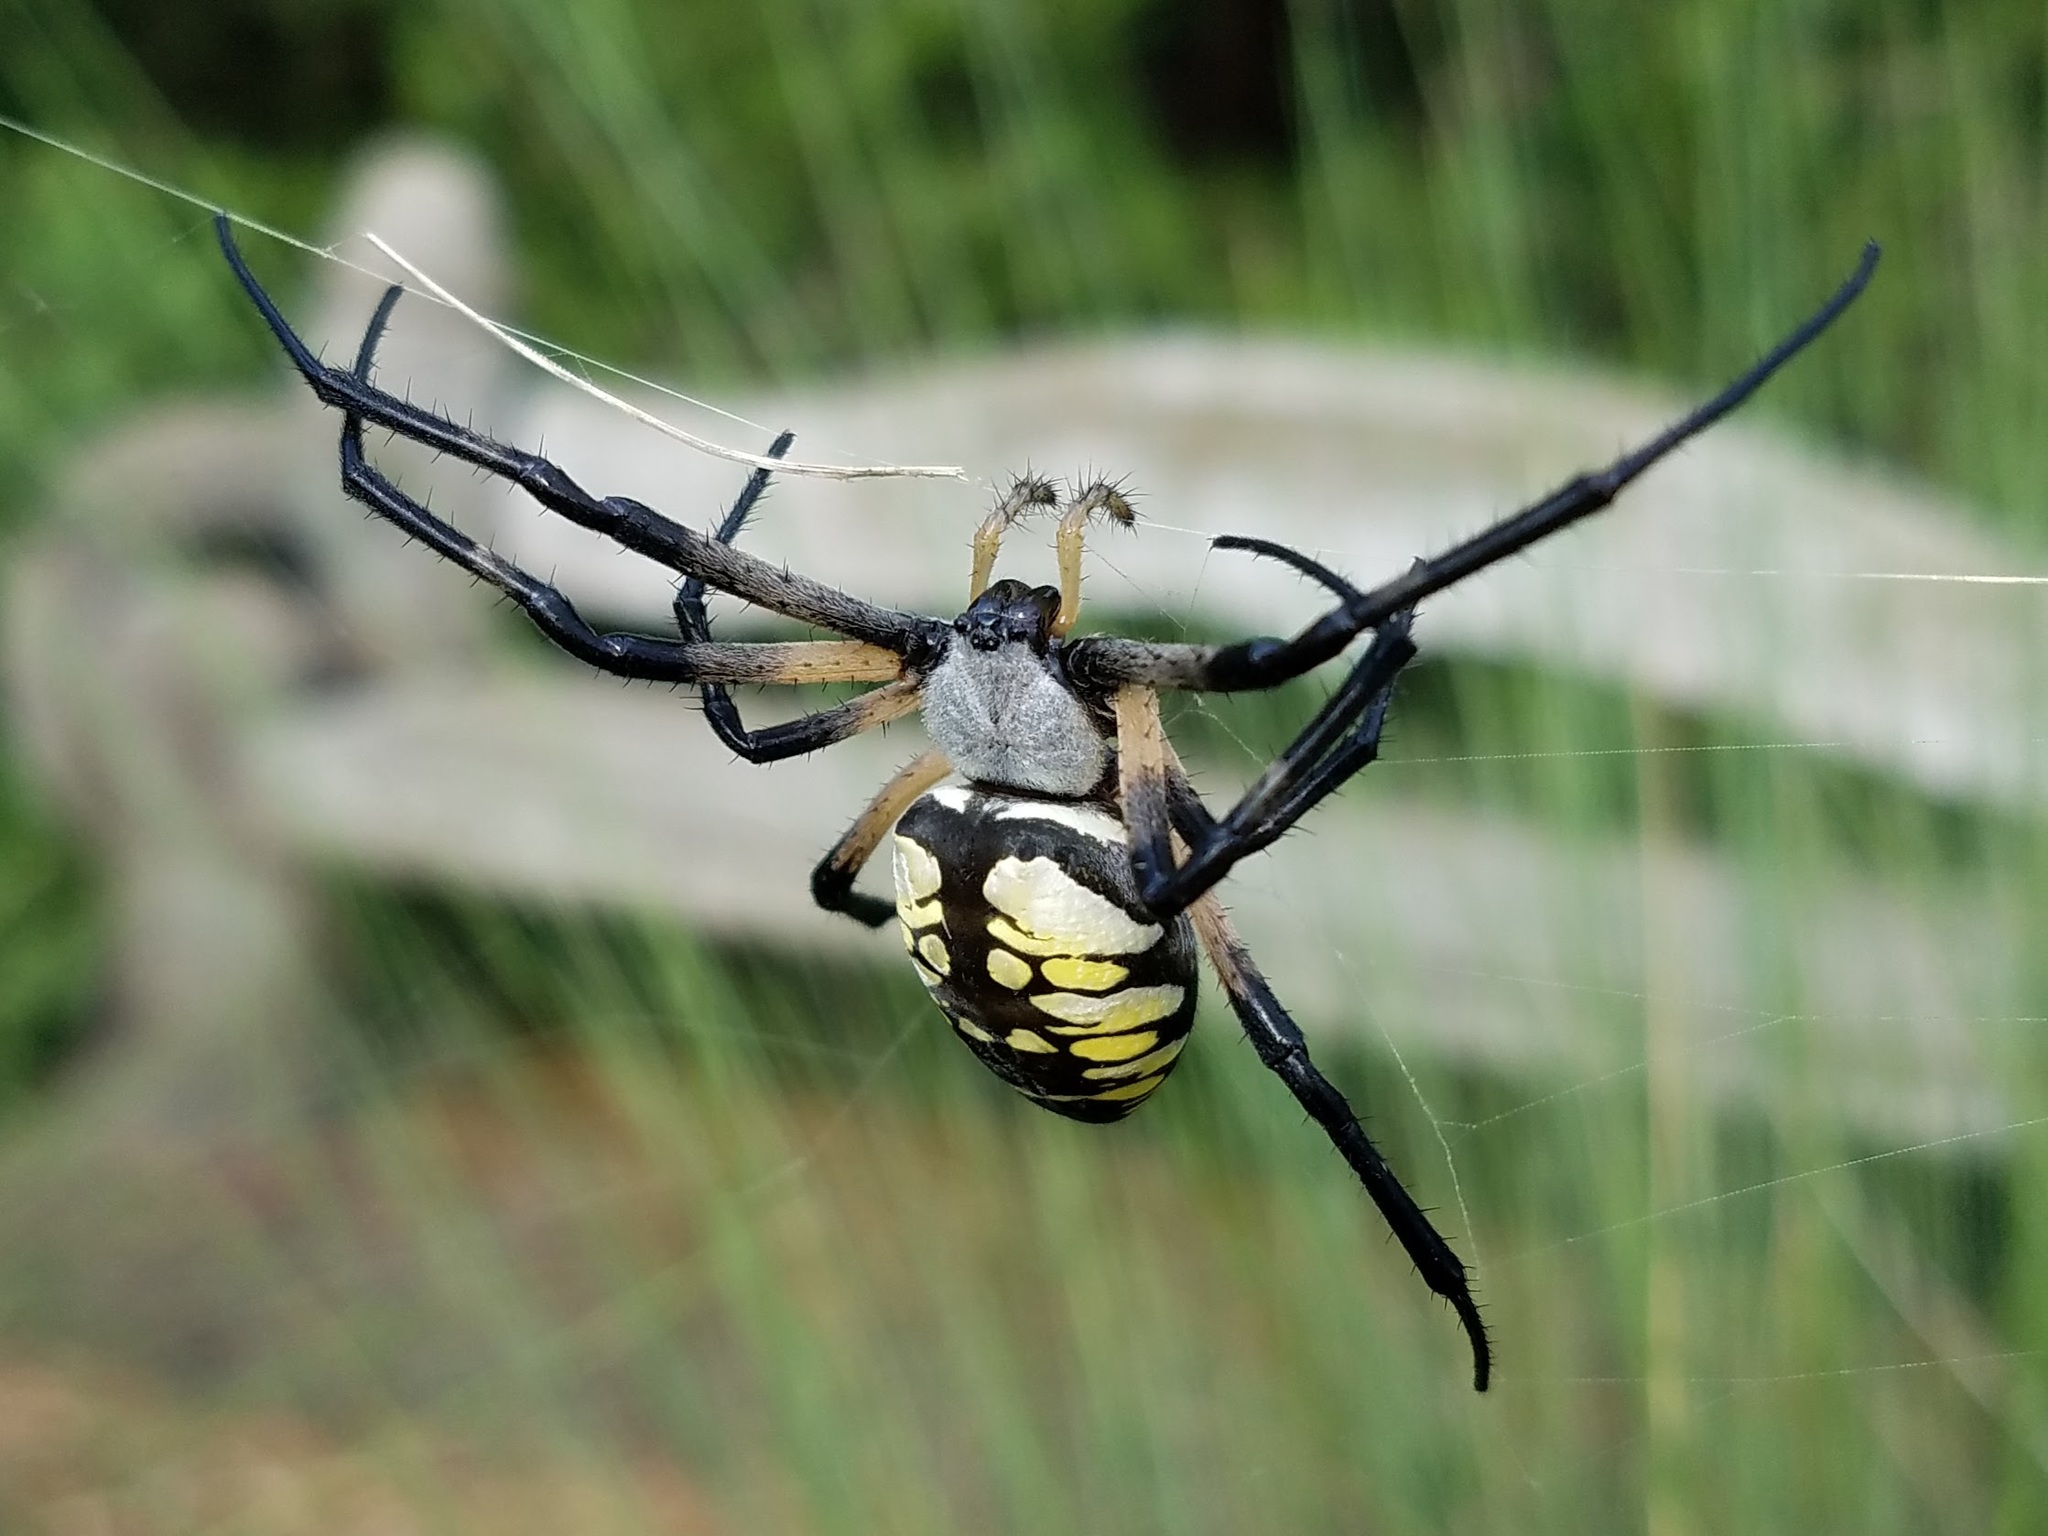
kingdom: Animalia
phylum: Arthropoda
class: Arachnida
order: Araneae
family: Araneidae
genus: Argiope
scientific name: Argiope aurantia
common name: Orb weavers
